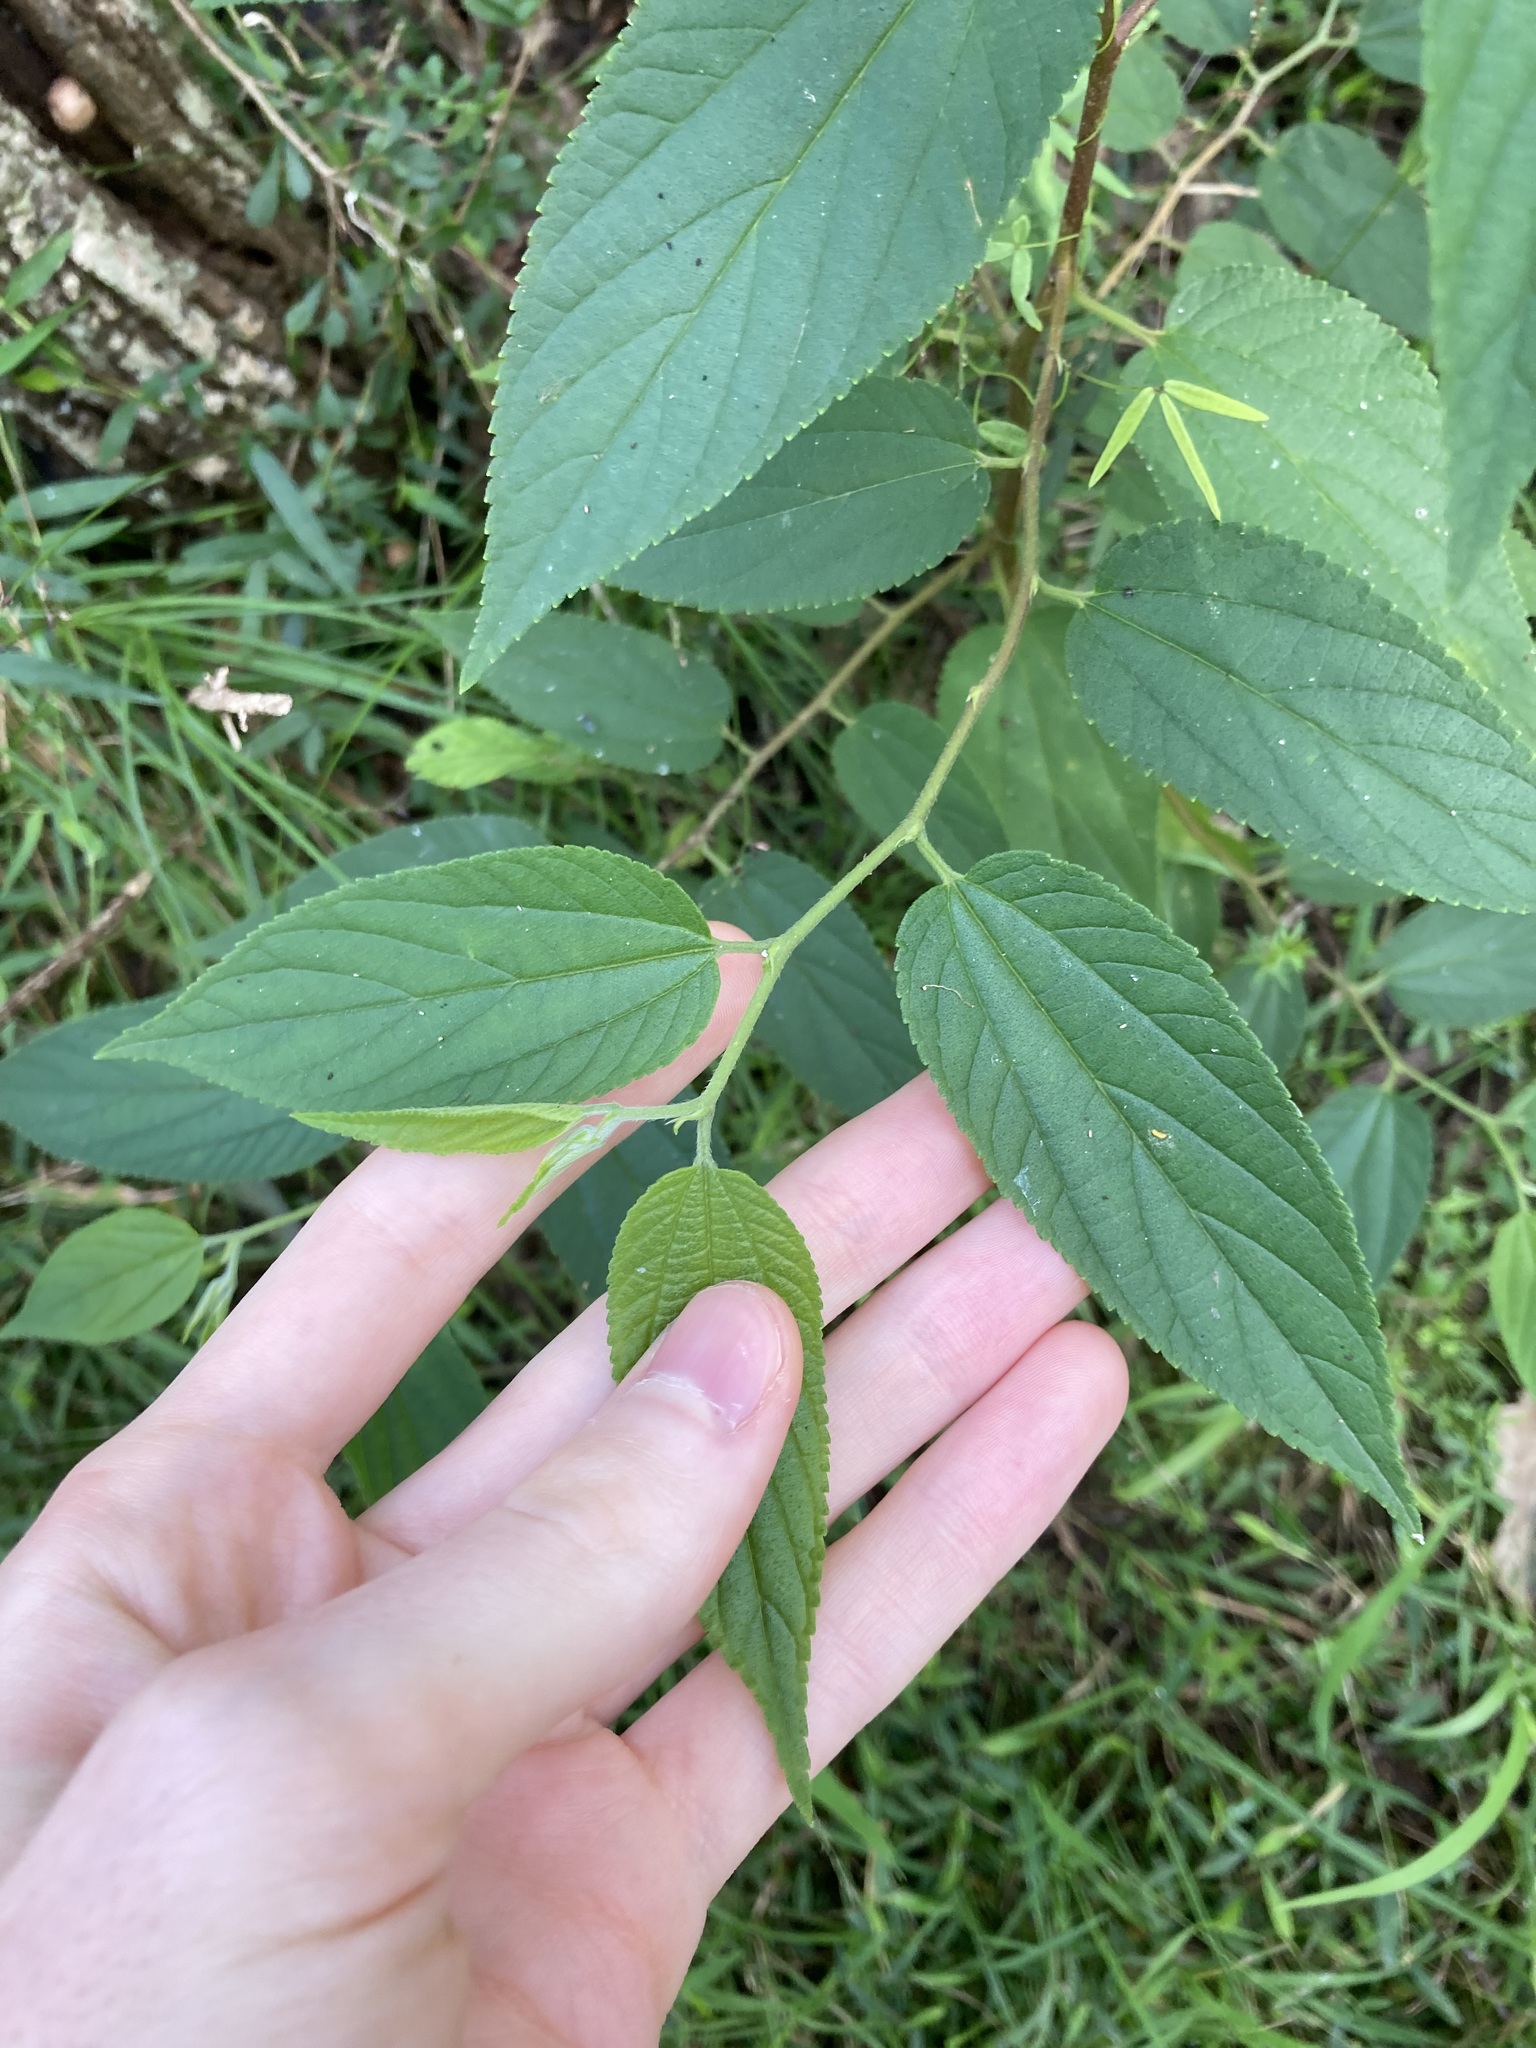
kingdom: Plantae
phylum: Tracheophyta
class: Magnoliopsida
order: Rosales
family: Cannabaceae
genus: Trema
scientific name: Trema tomentosum
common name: Peach-leaf-poisonbush
